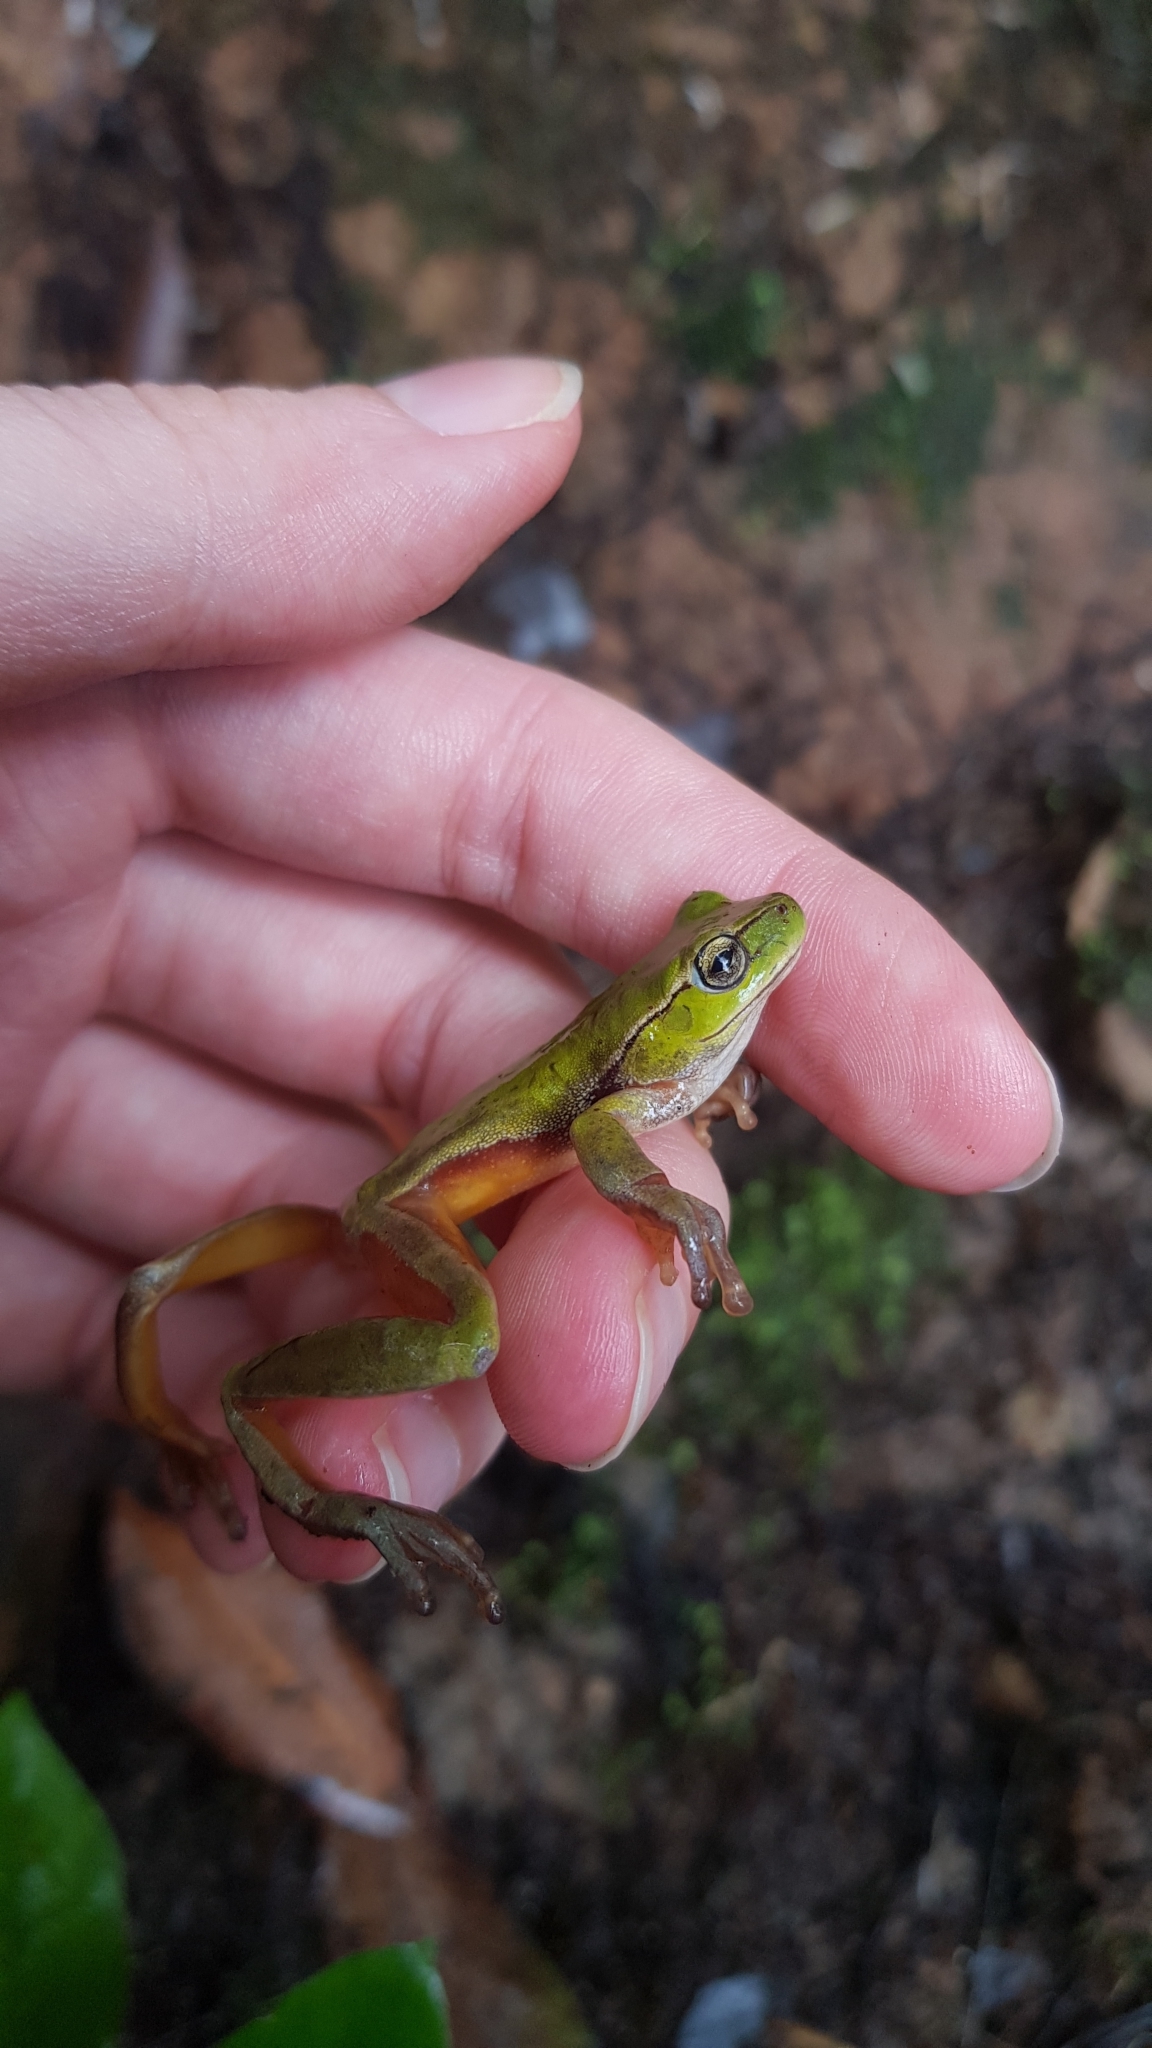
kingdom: Animalia
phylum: Chordata
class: Amphibia
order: Anura
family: Pelodryadidae
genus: Ranoidea
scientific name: Ranoidea phyllochroa
